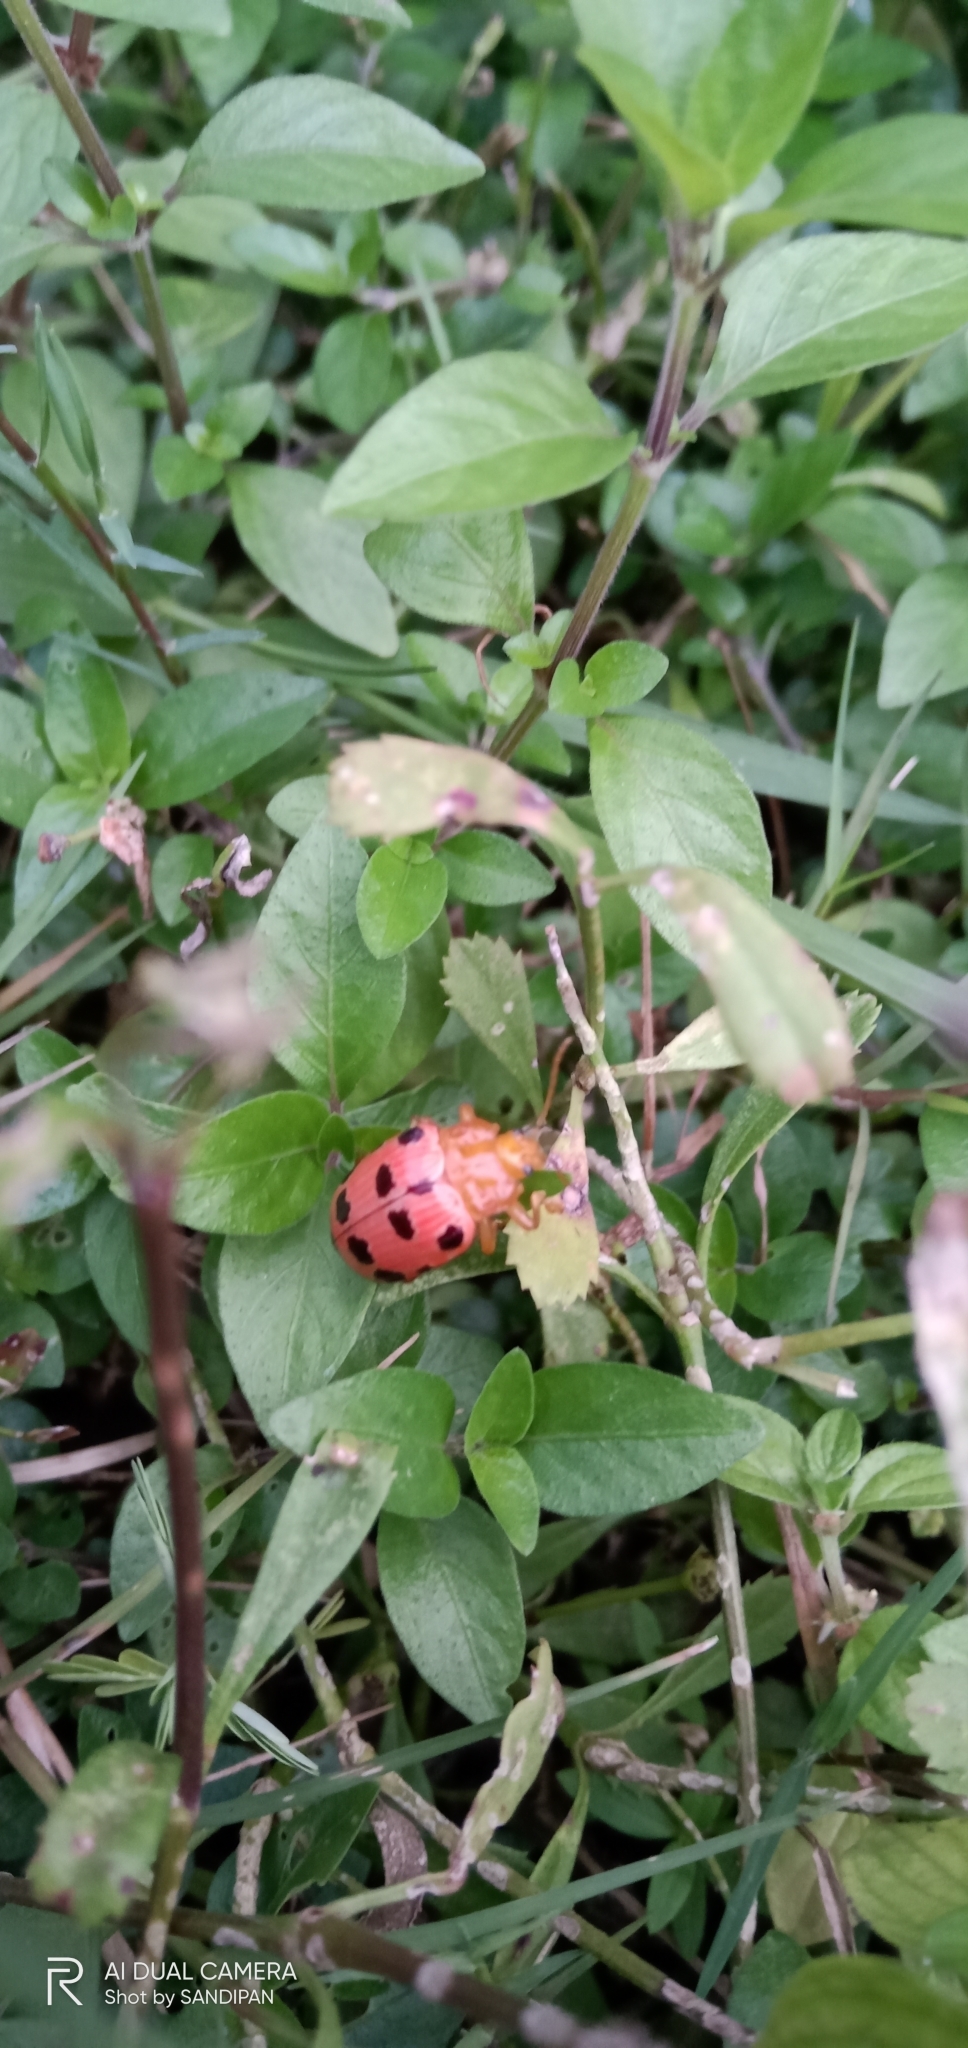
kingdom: Animalia
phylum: Arthropoda
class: Insecta
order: Coleoptera
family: Chrysomelidae
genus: Podontia
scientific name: Podontia
